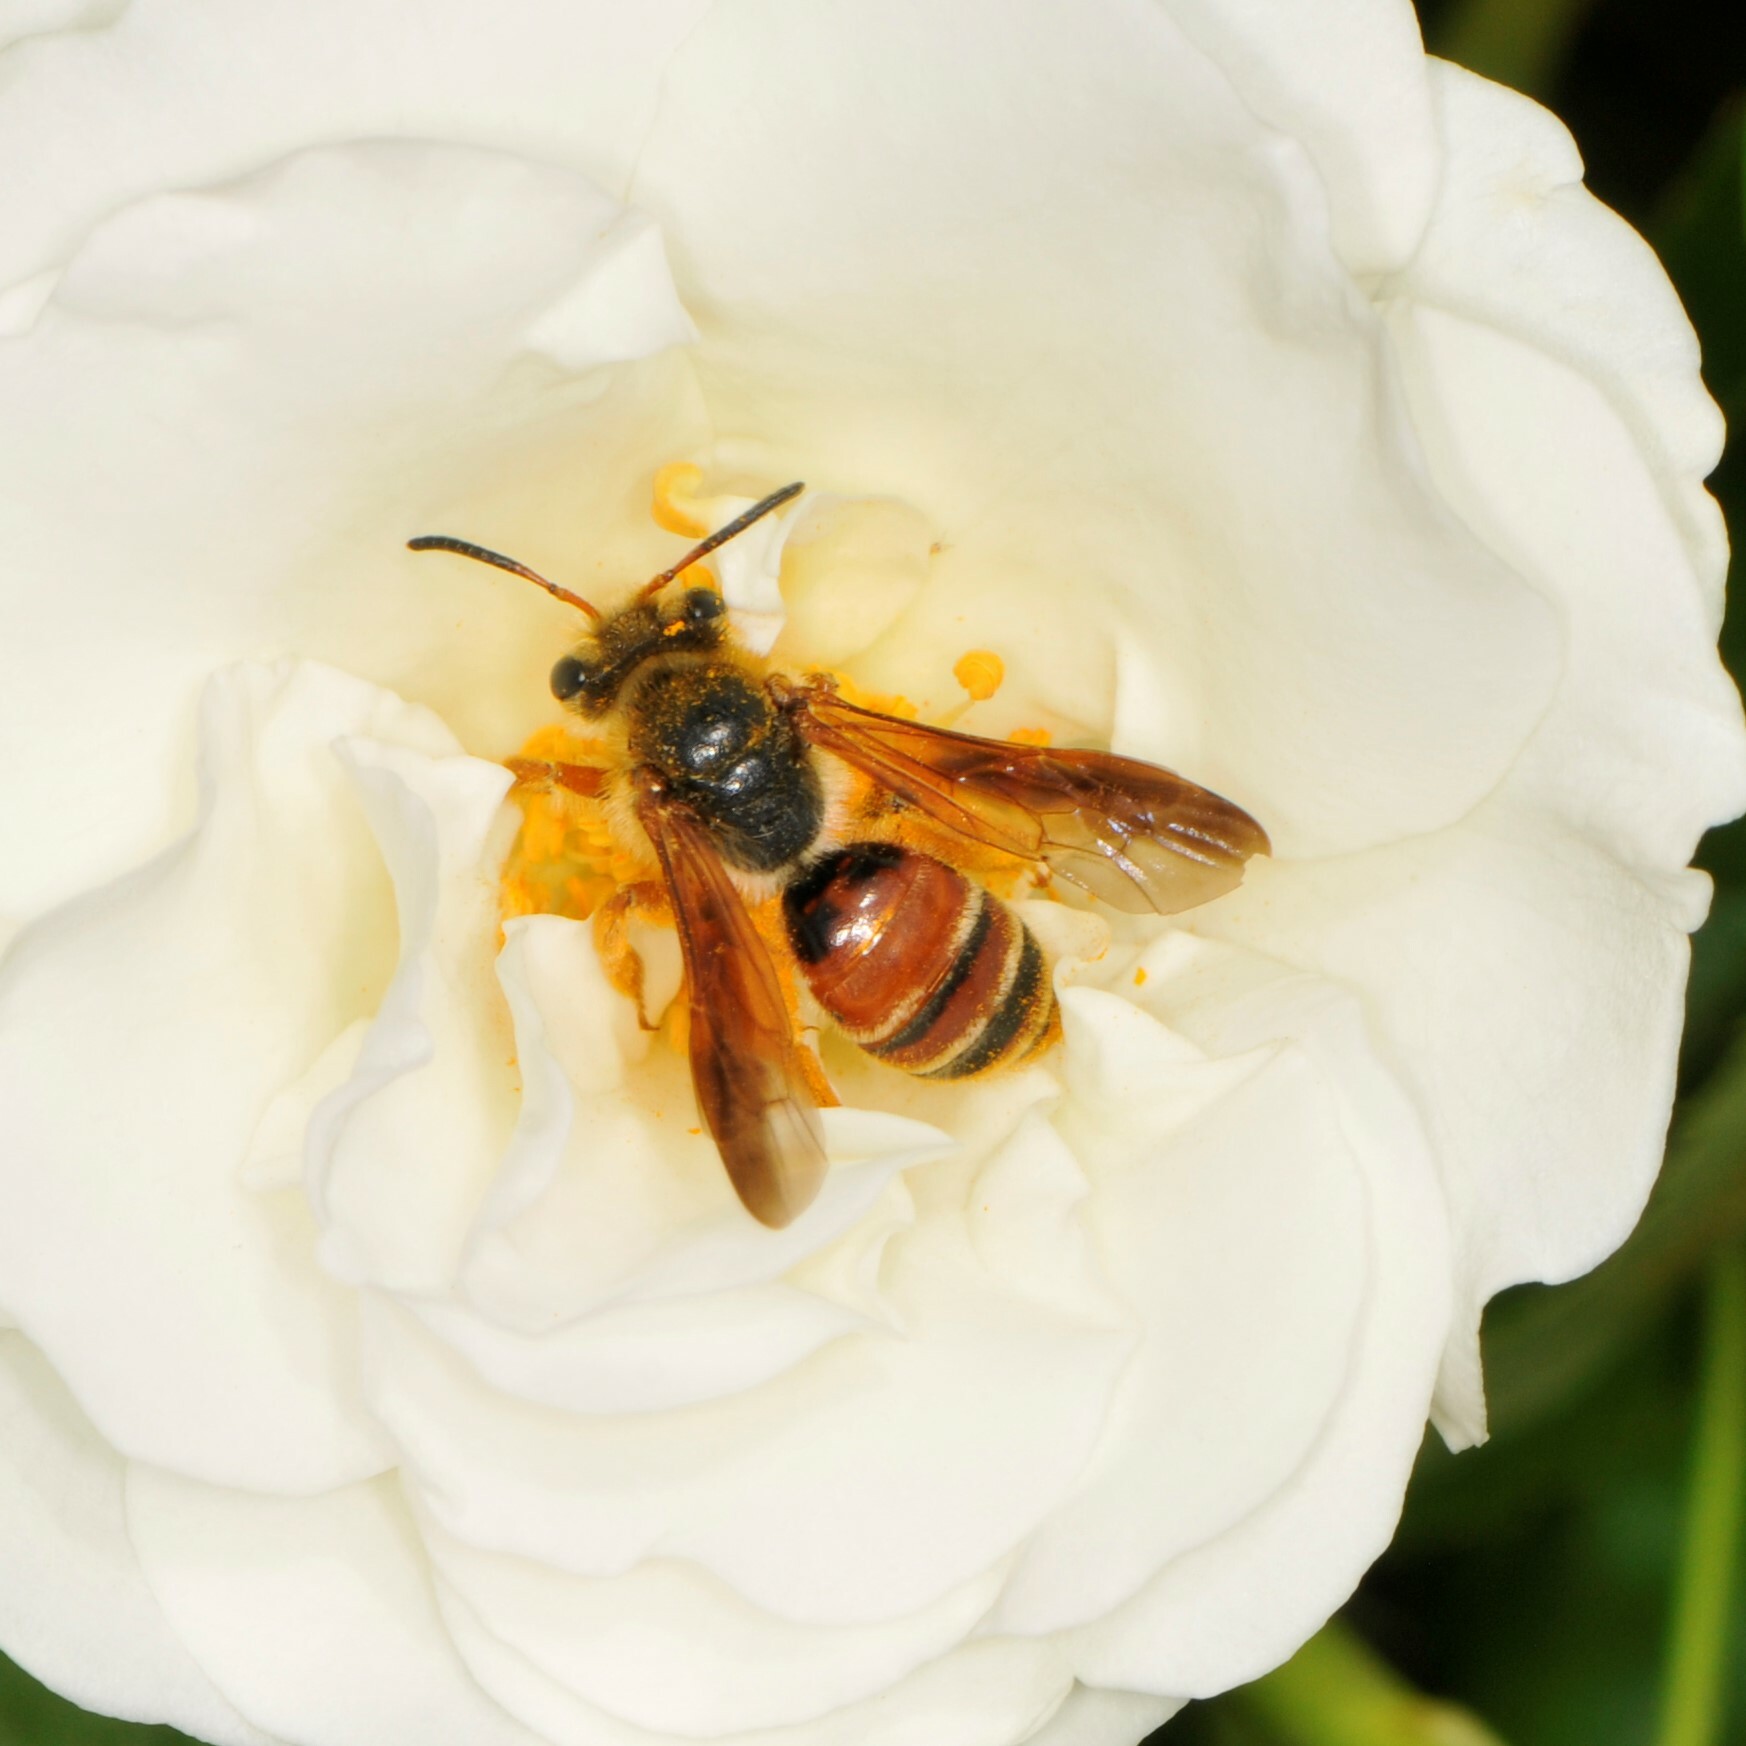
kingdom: Animalia
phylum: Arthropoda
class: Insecta
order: Hymenoptera
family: Andrenidae
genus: Andrena
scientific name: Andrena prunorum
